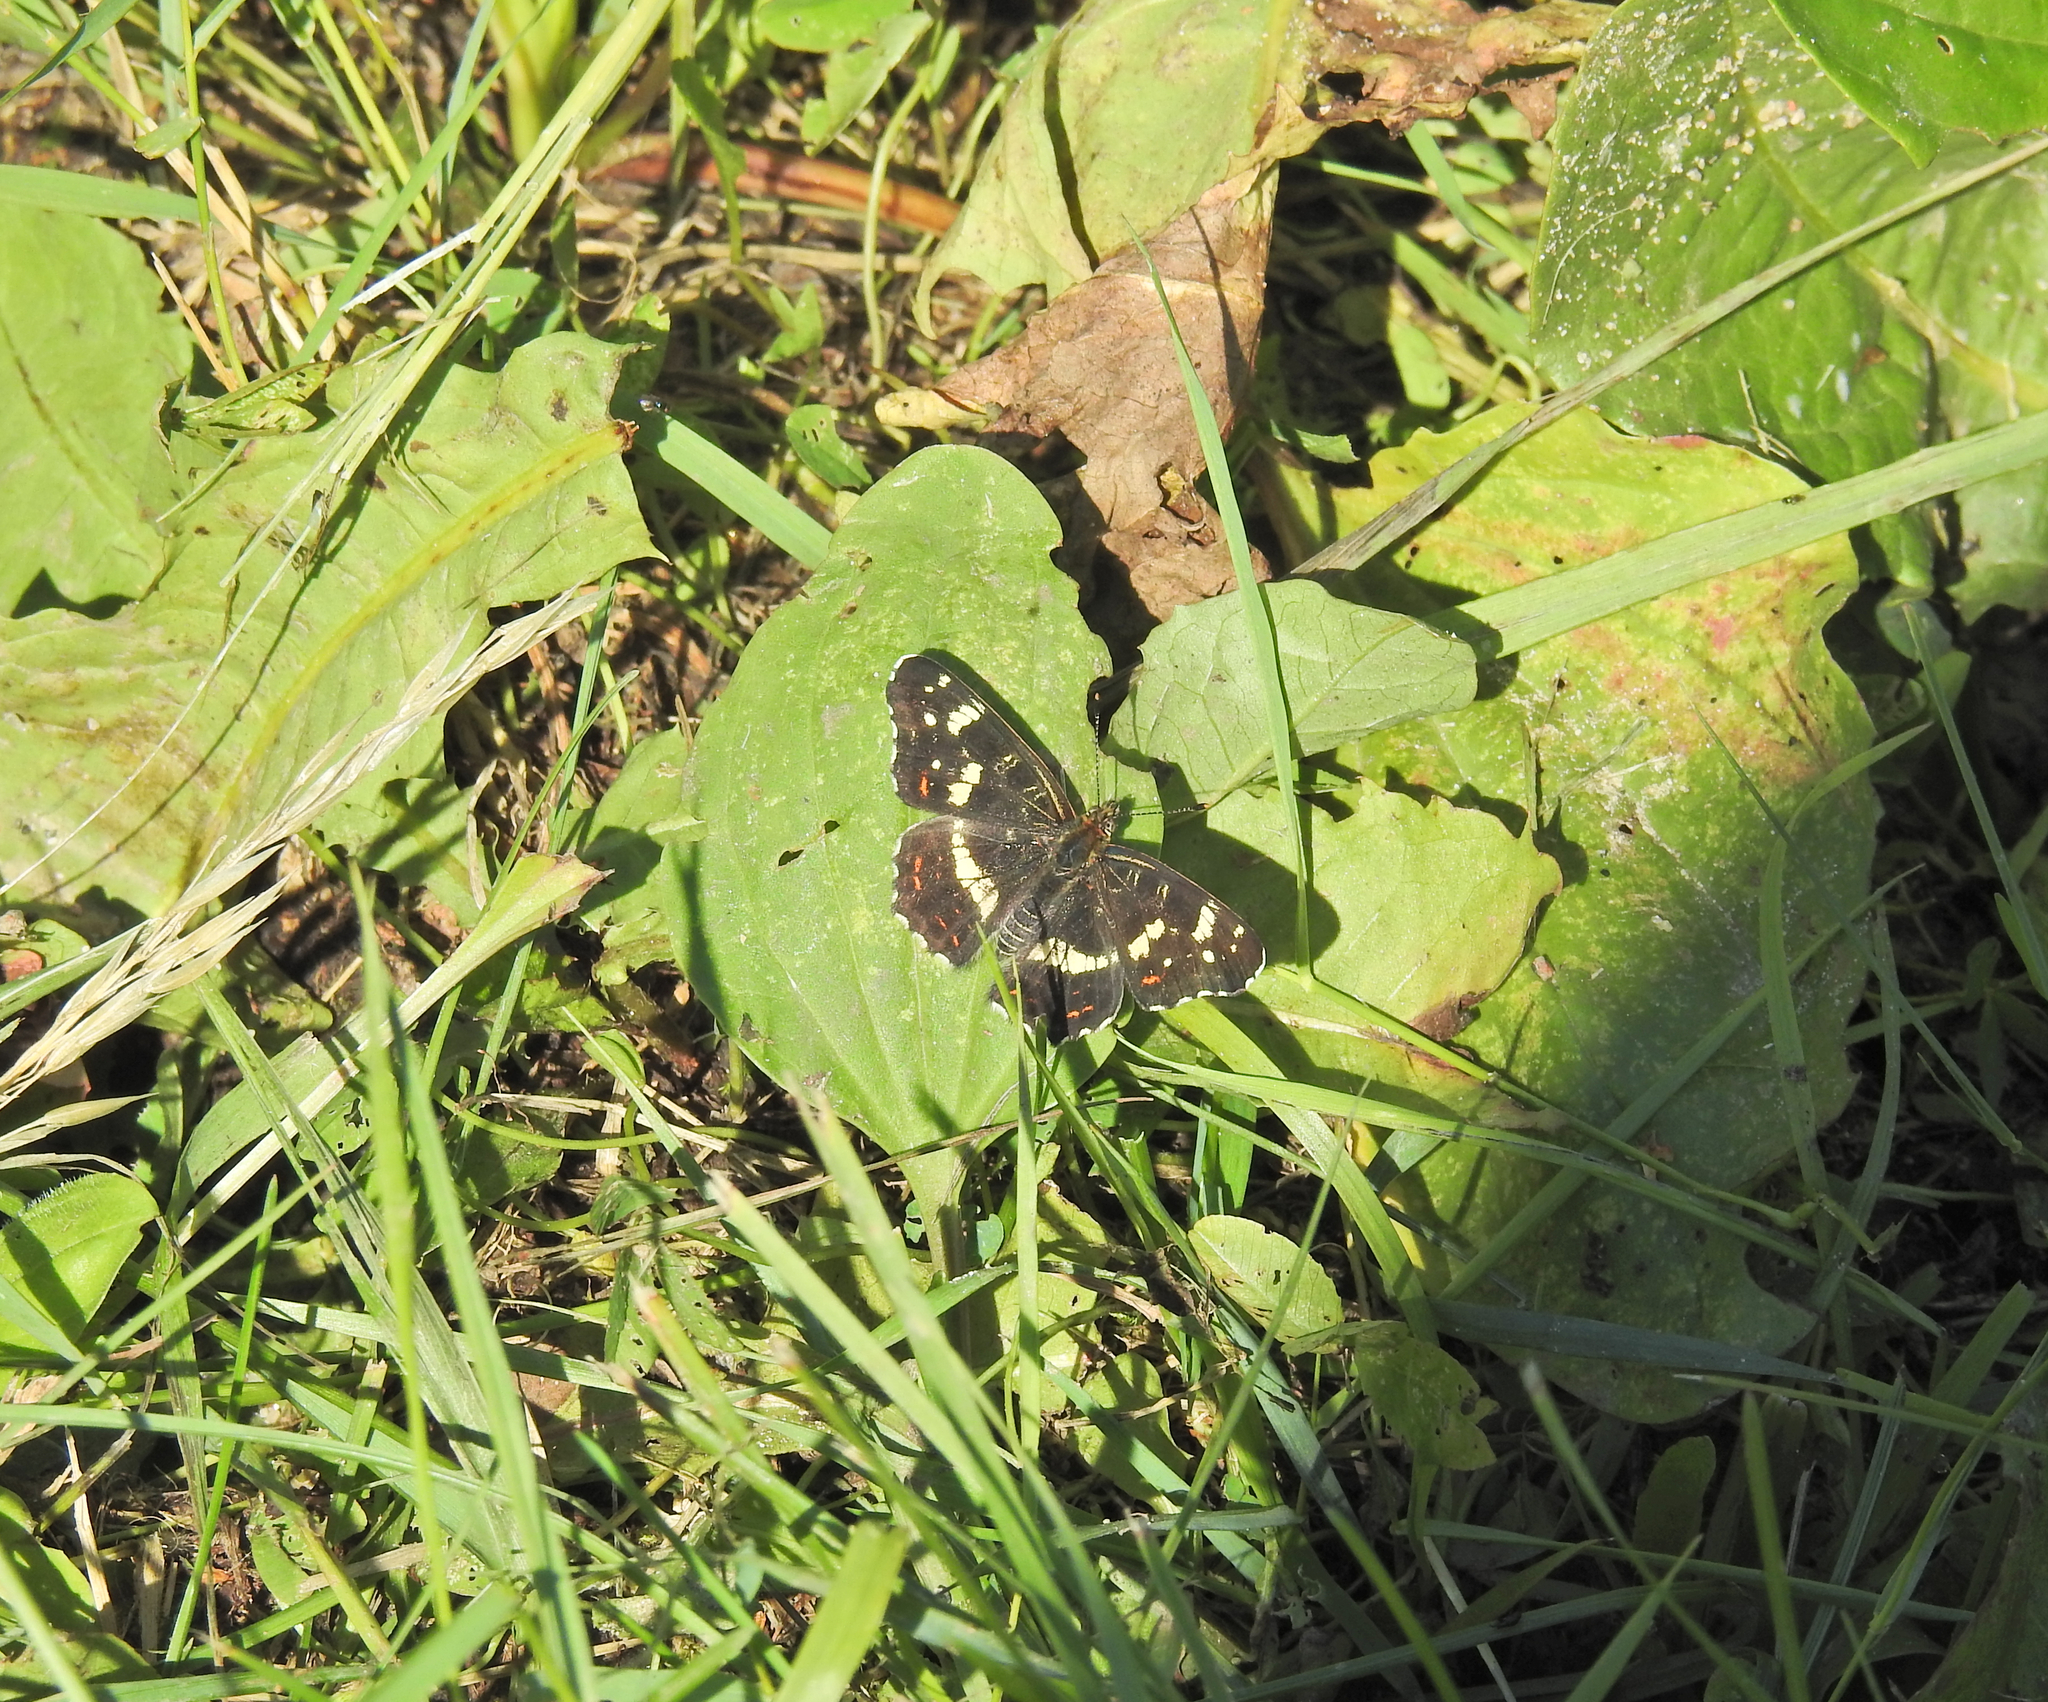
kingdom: Animalia
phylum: Arthropoda
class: Insecta
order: Lepidoptera
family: Nymphalidae
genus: Araschnia
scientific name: Araschnia levana
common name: Map butterfly
